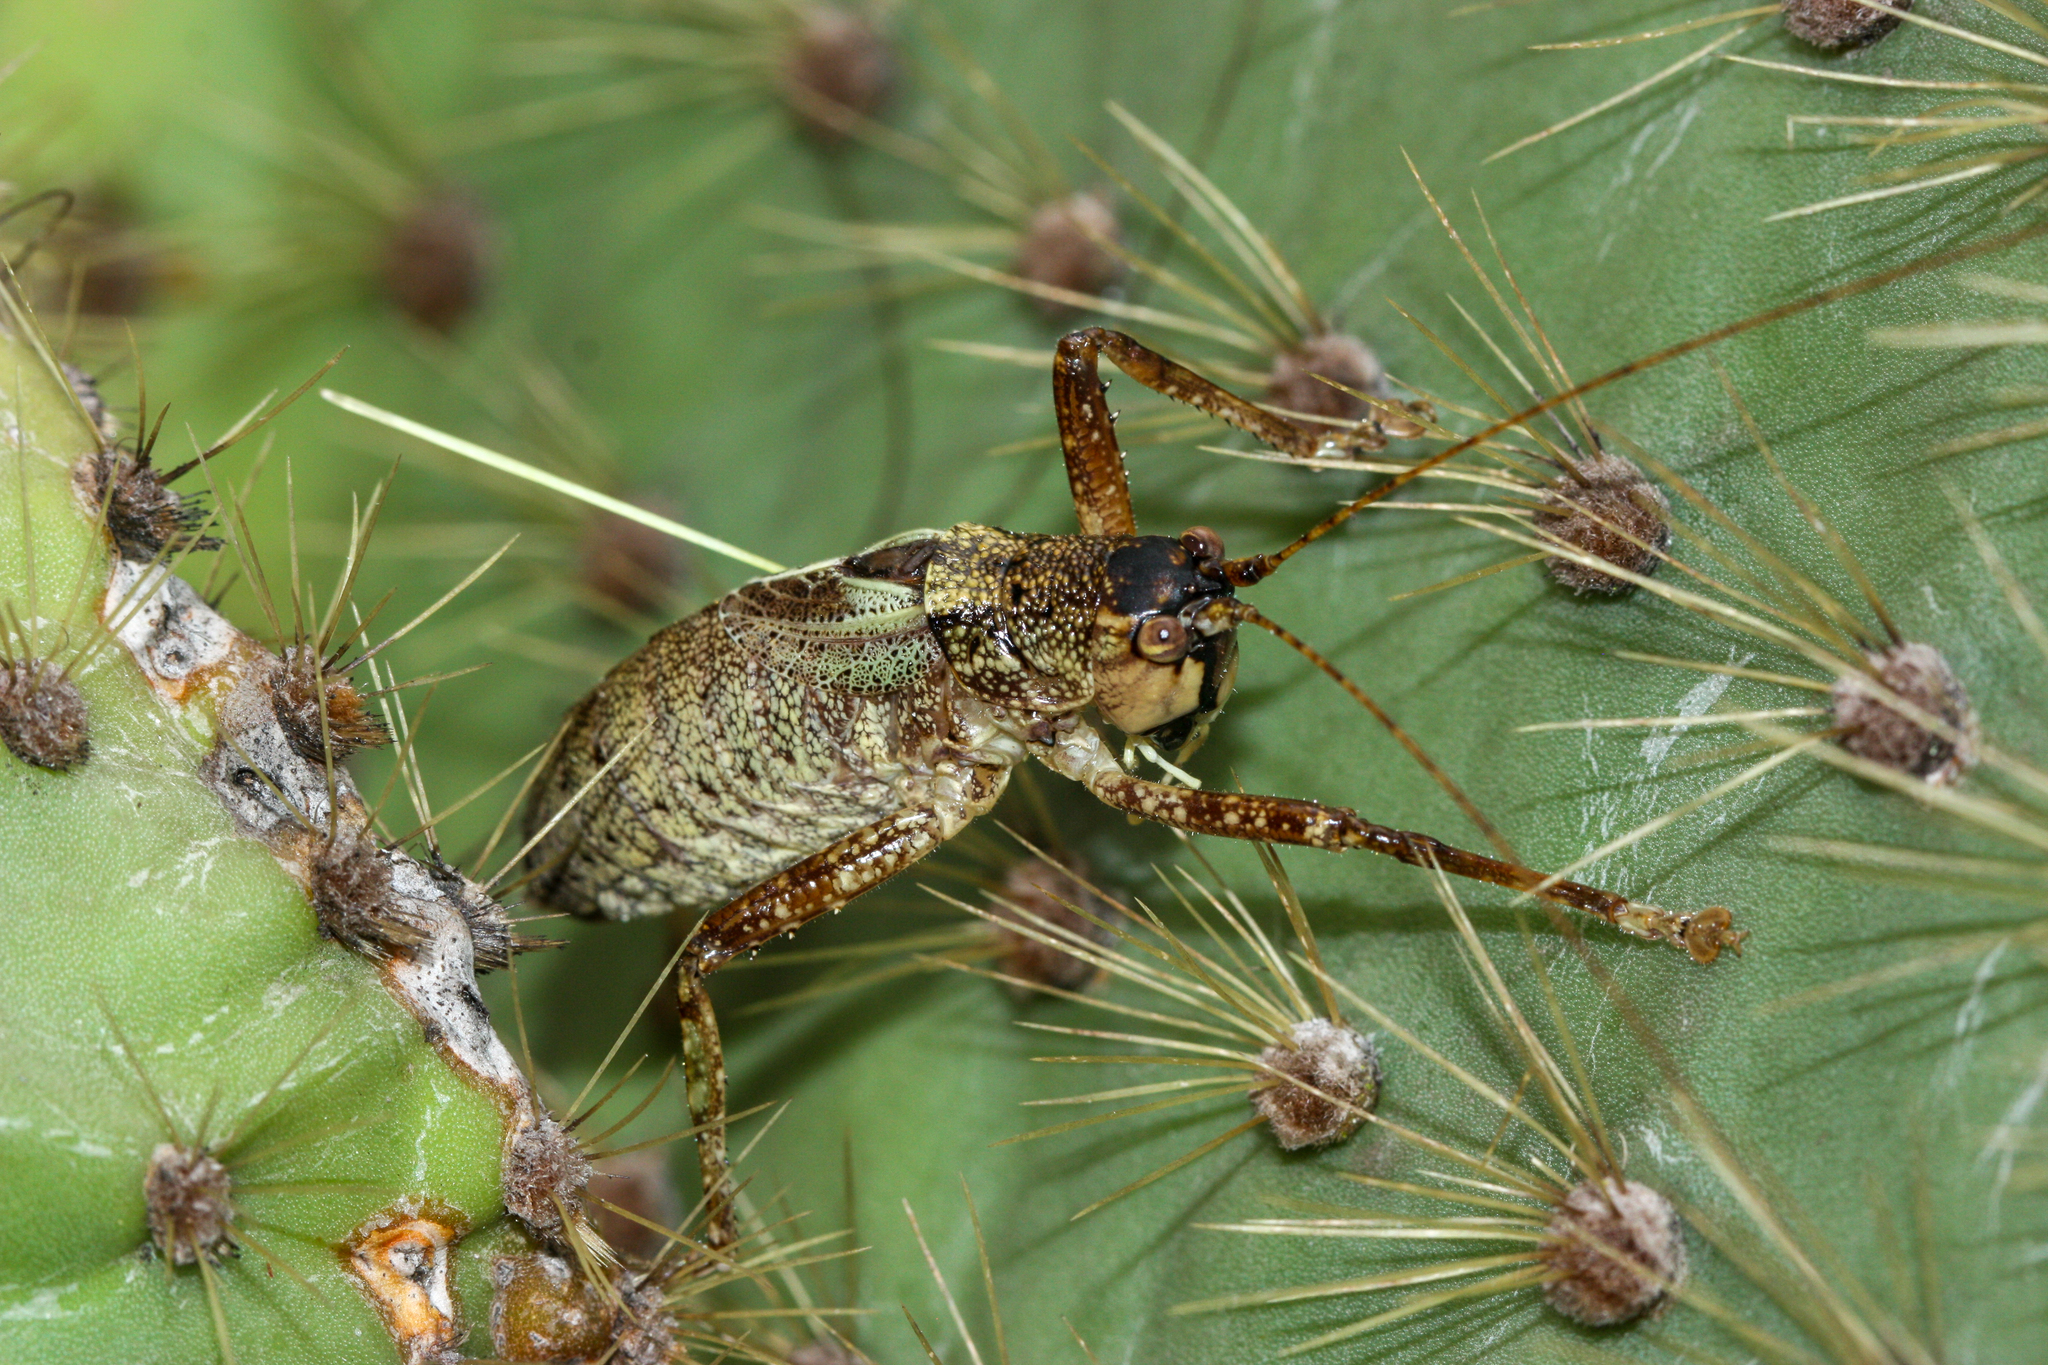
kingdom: Animalia
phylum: Arthropoda
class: Insecta
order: Orthoptera
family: Tettigoniidae
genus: Nesoecia
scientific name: Nesoecia cooksonii
